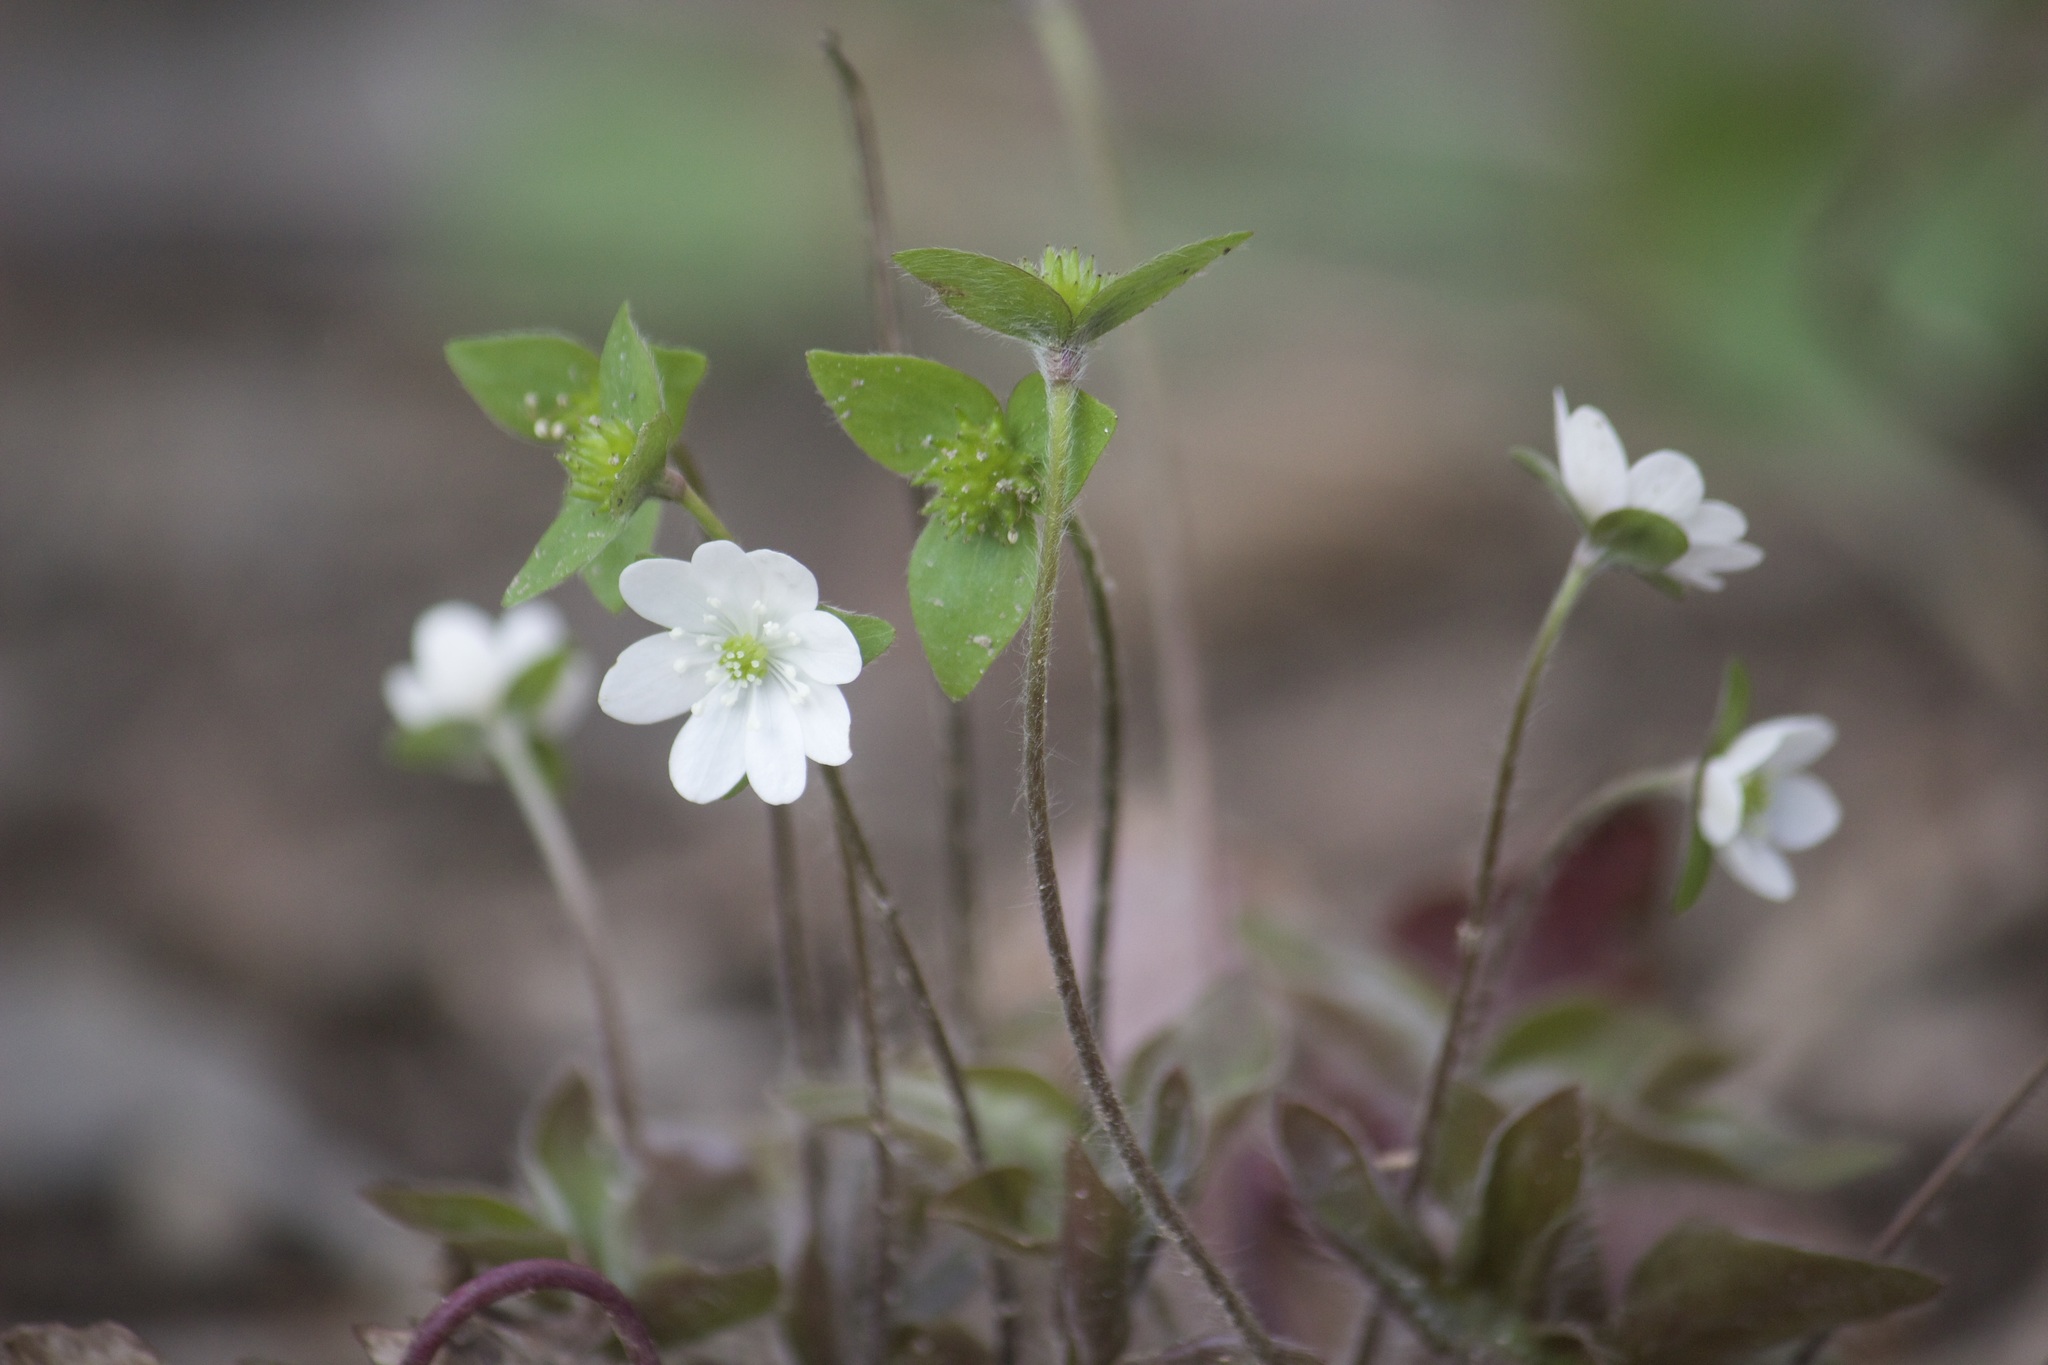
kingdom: Plantae
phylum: Tracheophyta
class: Magnoliopsida
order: Ranunculales
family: Ranunculaceae
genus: Hepatica
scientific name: Hepatica acutiloba
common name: Sharp-lobed hepatica
